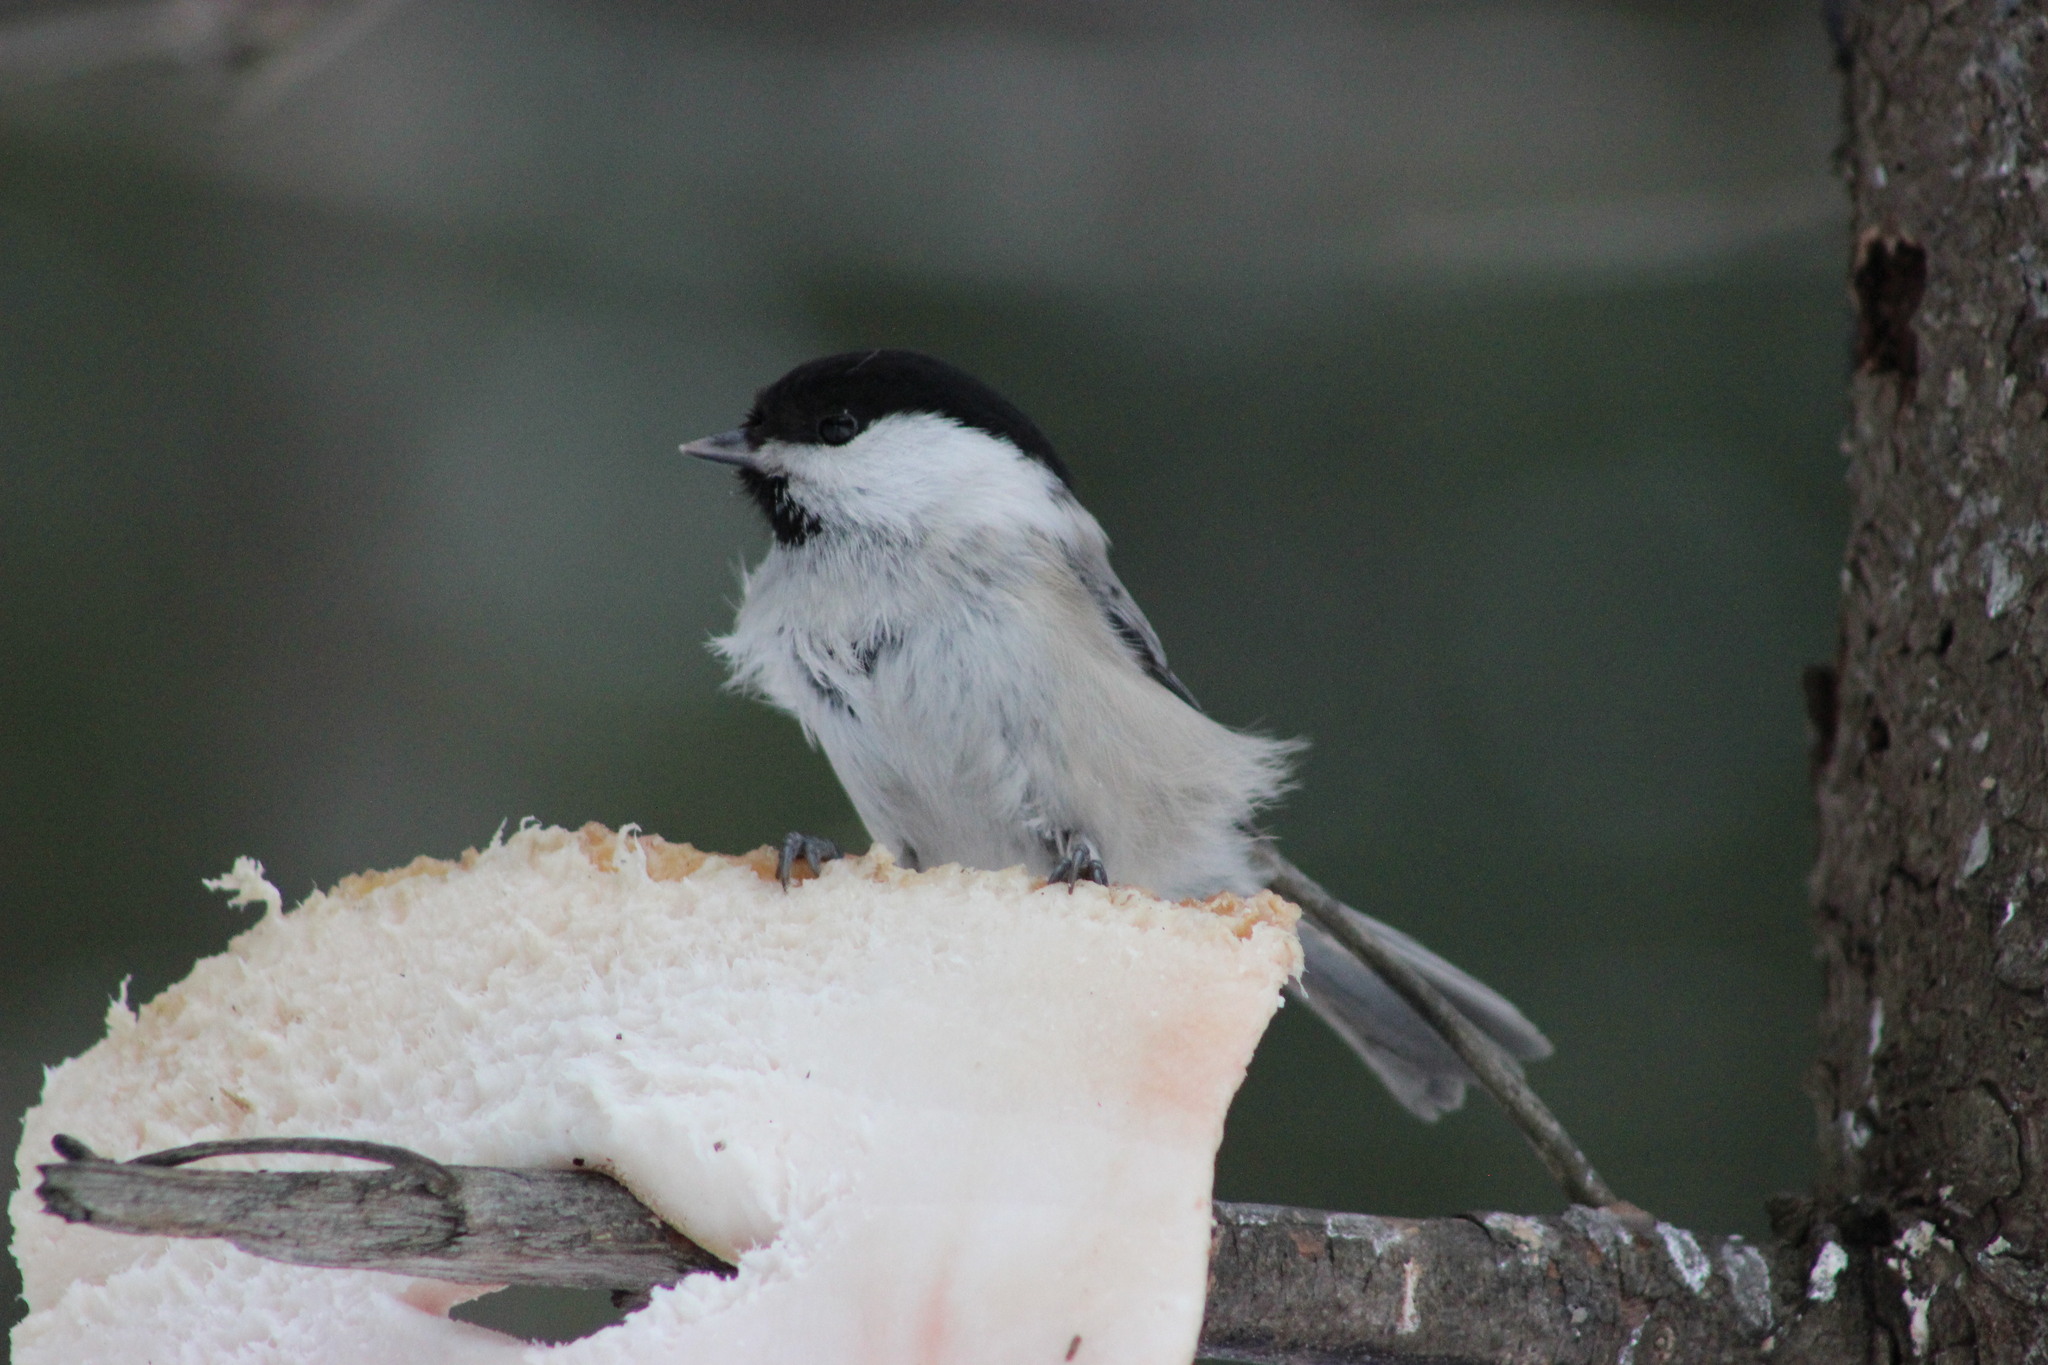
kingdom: Animalia
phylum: Chordata
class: Aves
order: Passeriformes
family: Paridae
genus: Poecile
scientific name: Poecile montanus
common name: Willow tit
